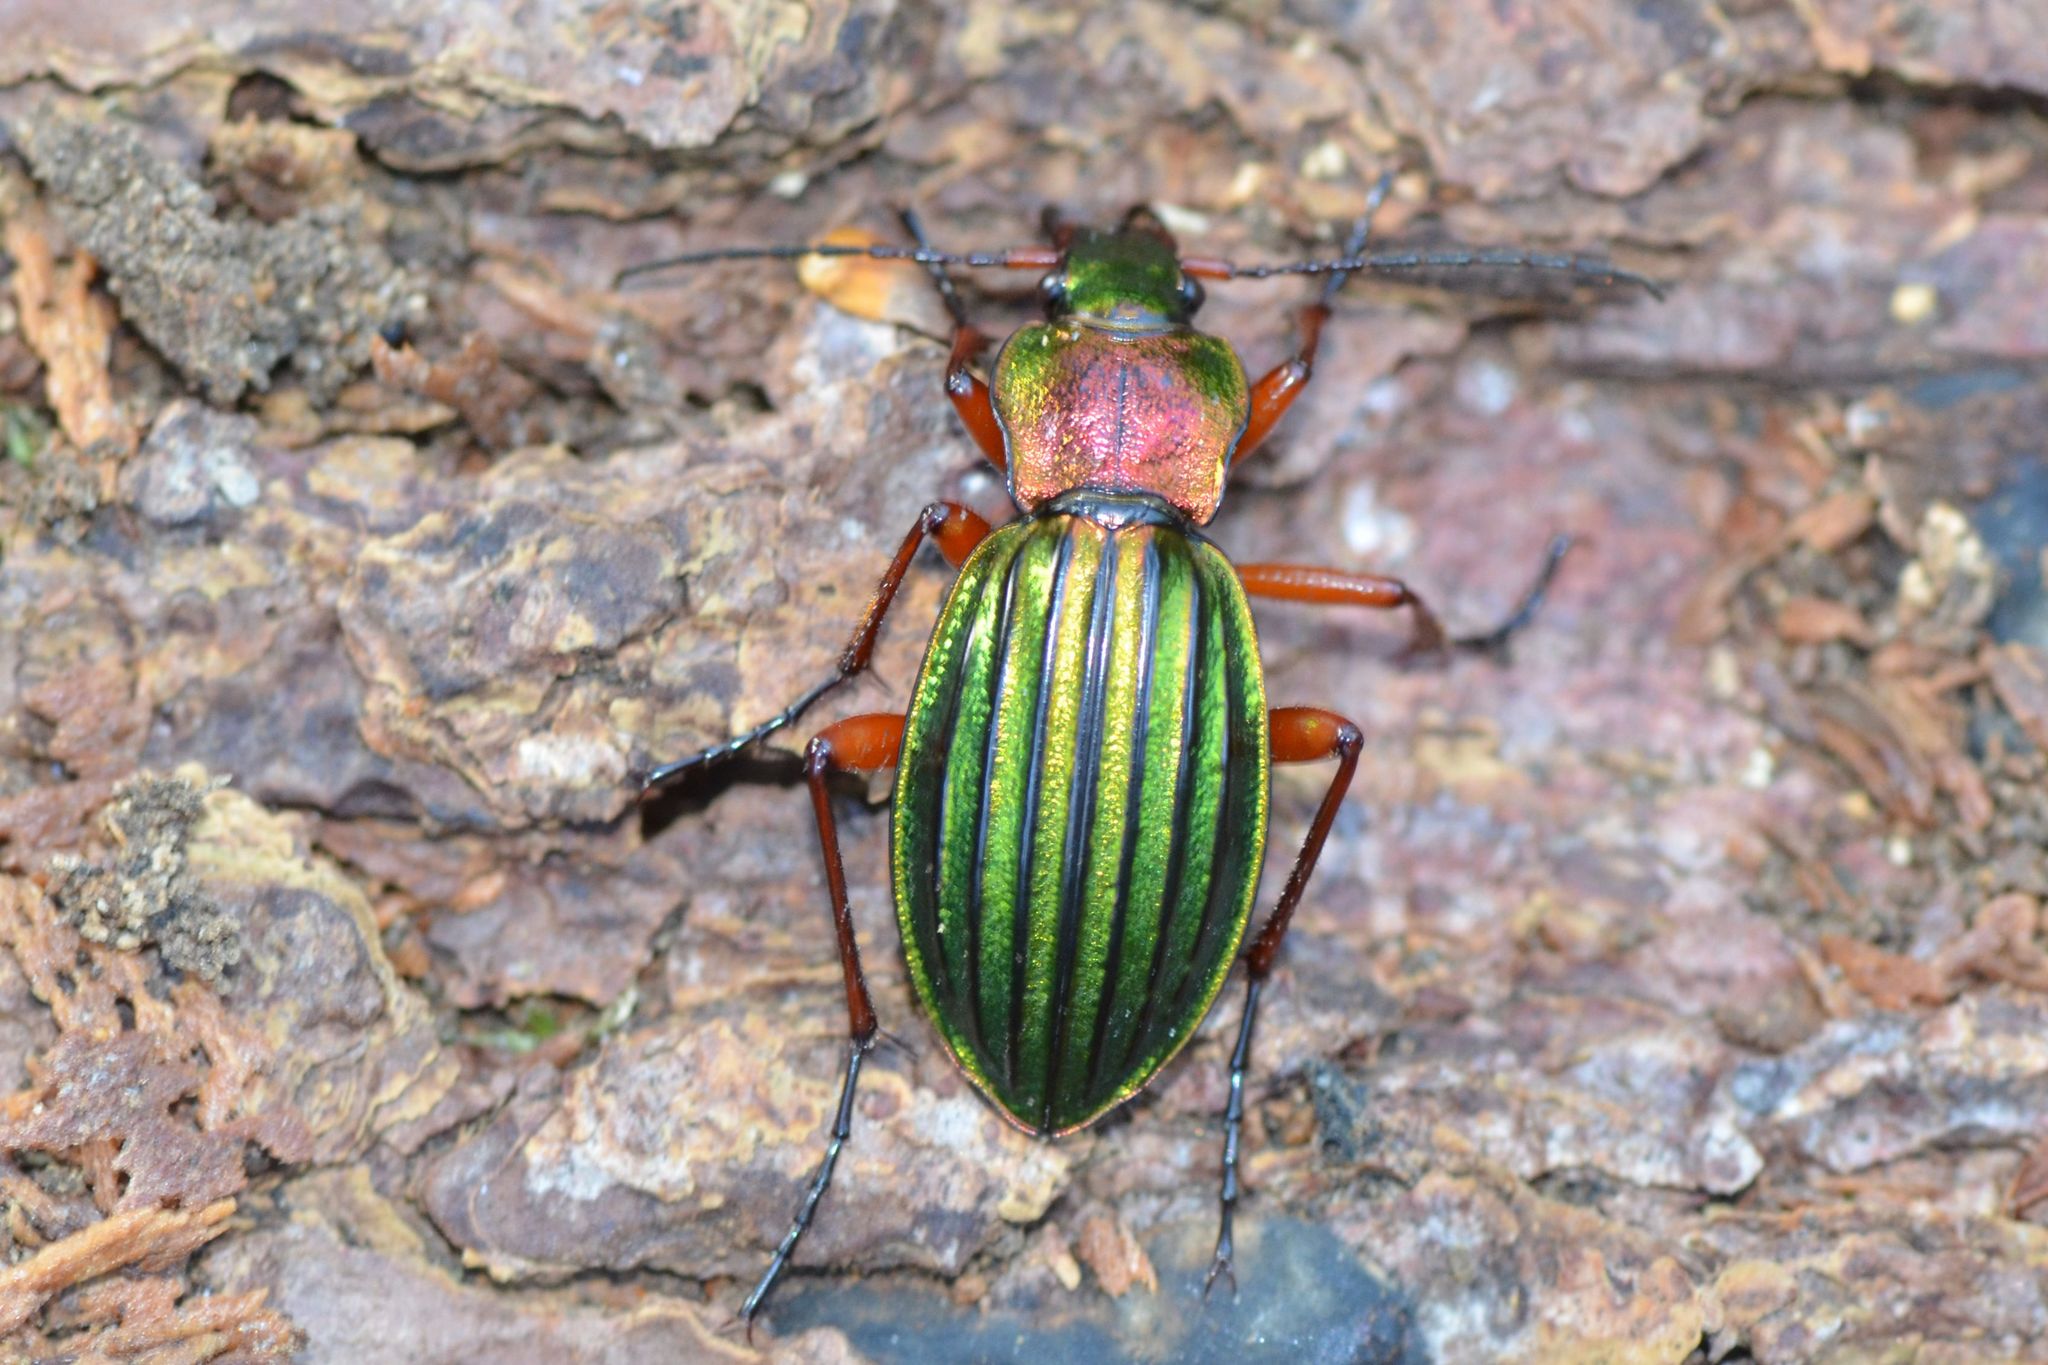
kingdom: Animalia
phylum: Arthropoda
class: Insecta
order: Coleoptera
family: Carabidae
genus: Carabus
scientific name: Carabus auronitens
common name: Carabus auronitens
